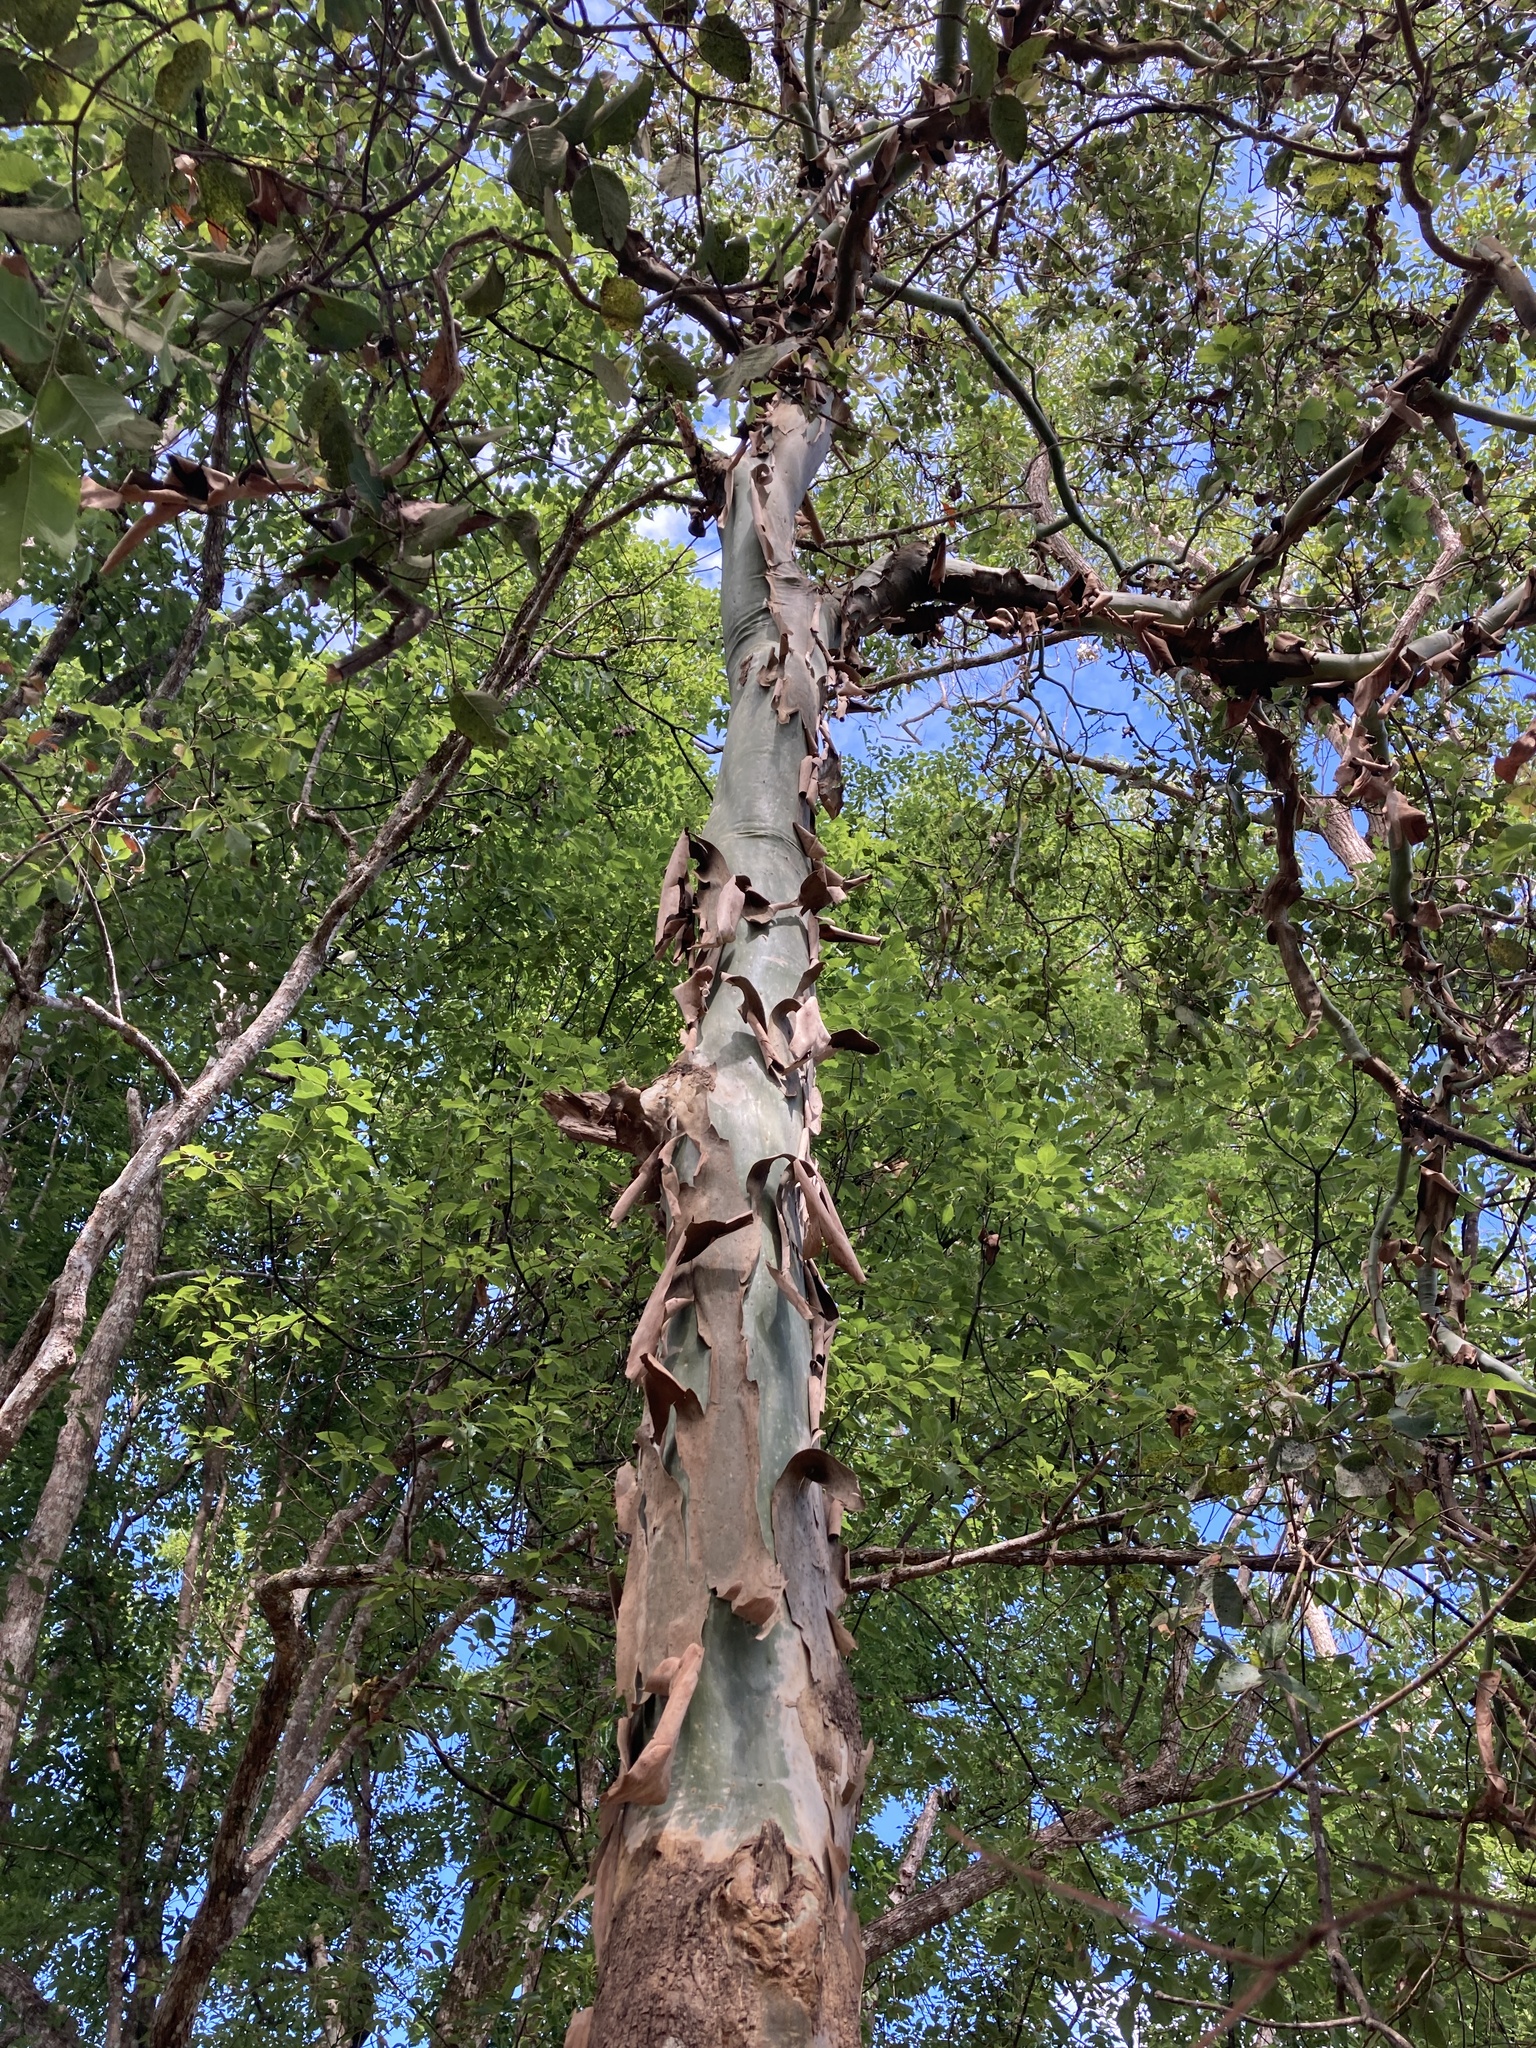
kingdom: Plantae
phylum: Tracheophyta
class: Magnoliopsida
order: Myrtales
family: Myrtaceae
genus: Corymbia
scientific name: Corymbia torelliana
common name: Cadaghi
